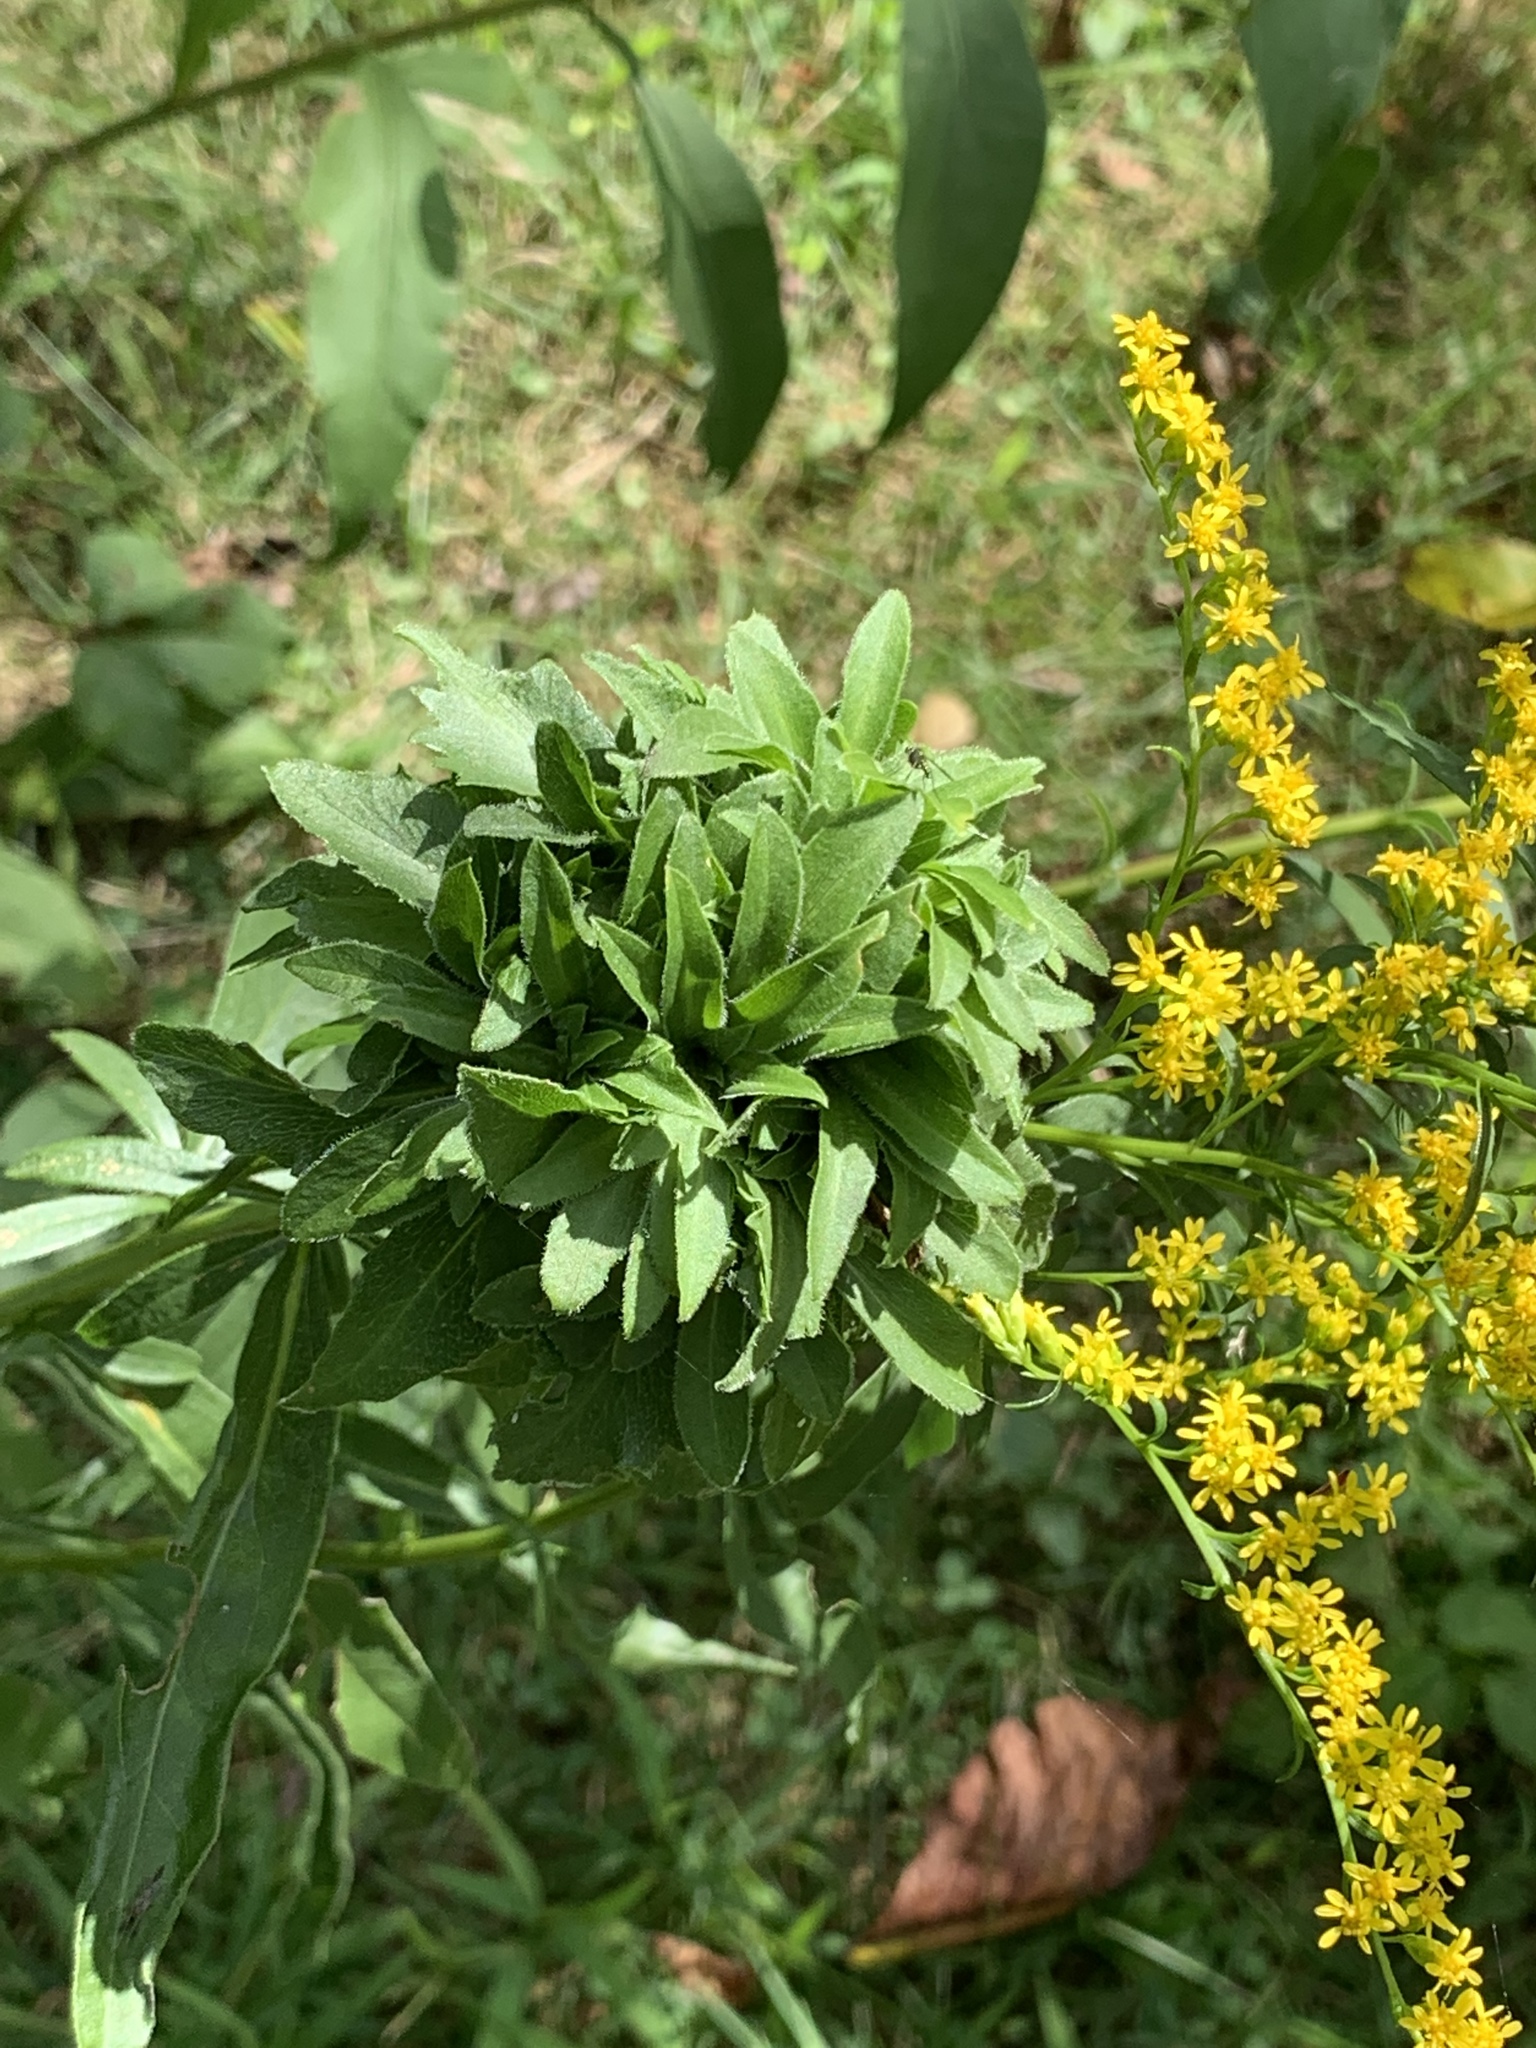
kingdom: Animalia
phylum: Arthropoda
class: Insecta
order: Diptera
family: Cecidomyiidae
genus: Rhopalomyia
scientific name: Rhopalomyia solidaginis
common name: Goldenrod bunch gall midge
